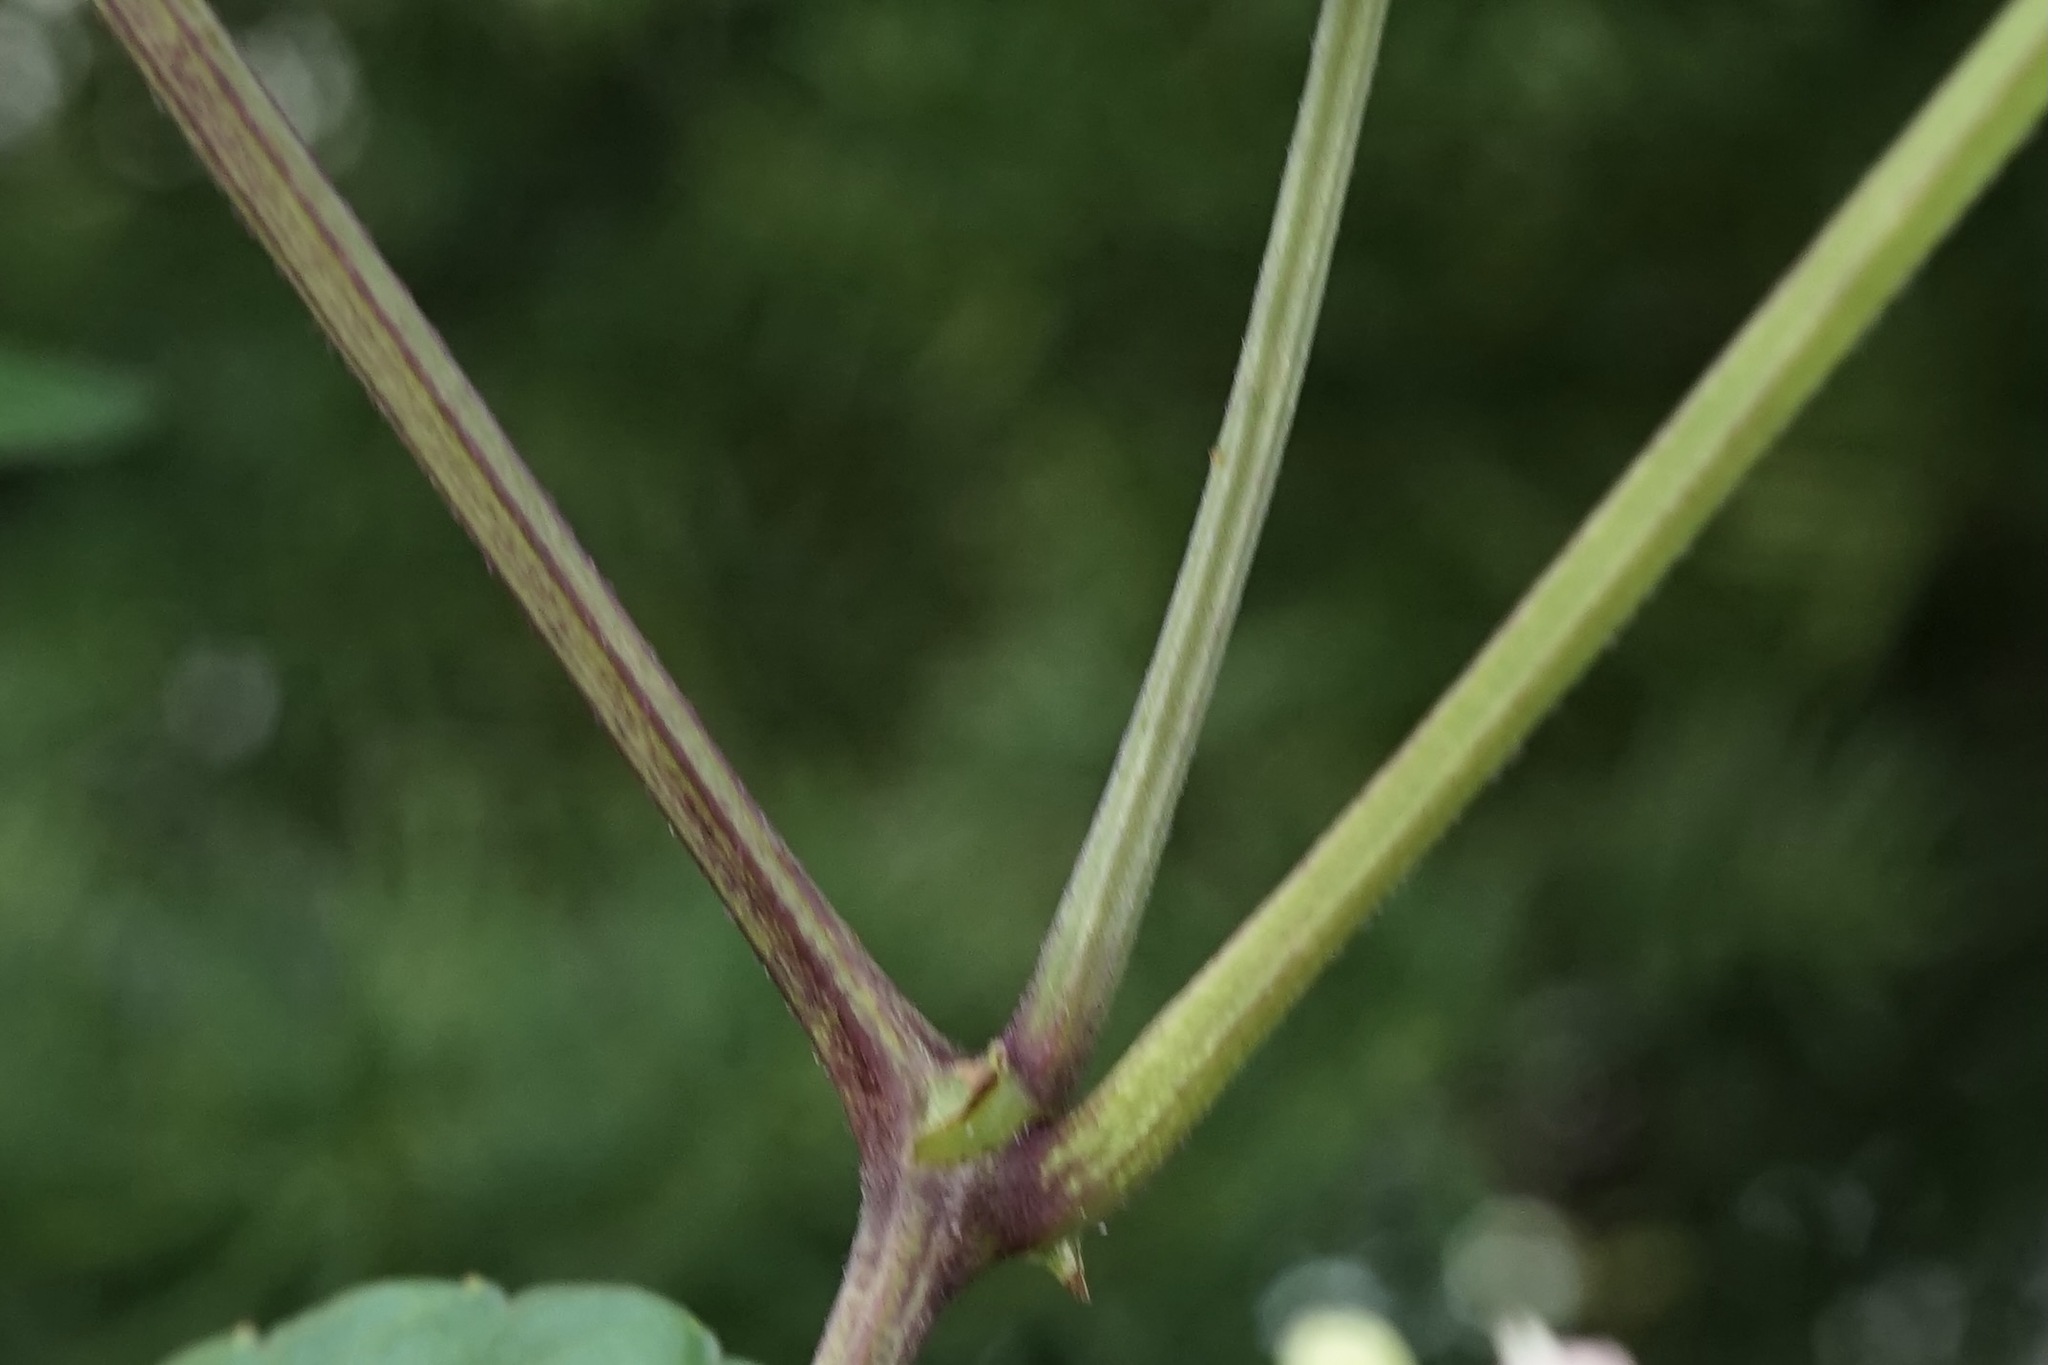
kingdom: Plantae
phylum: Tracheophyta
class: Magnoliopsida
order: Vitales
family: Vitaceae
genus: Causonis
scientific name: Causonis japonica
